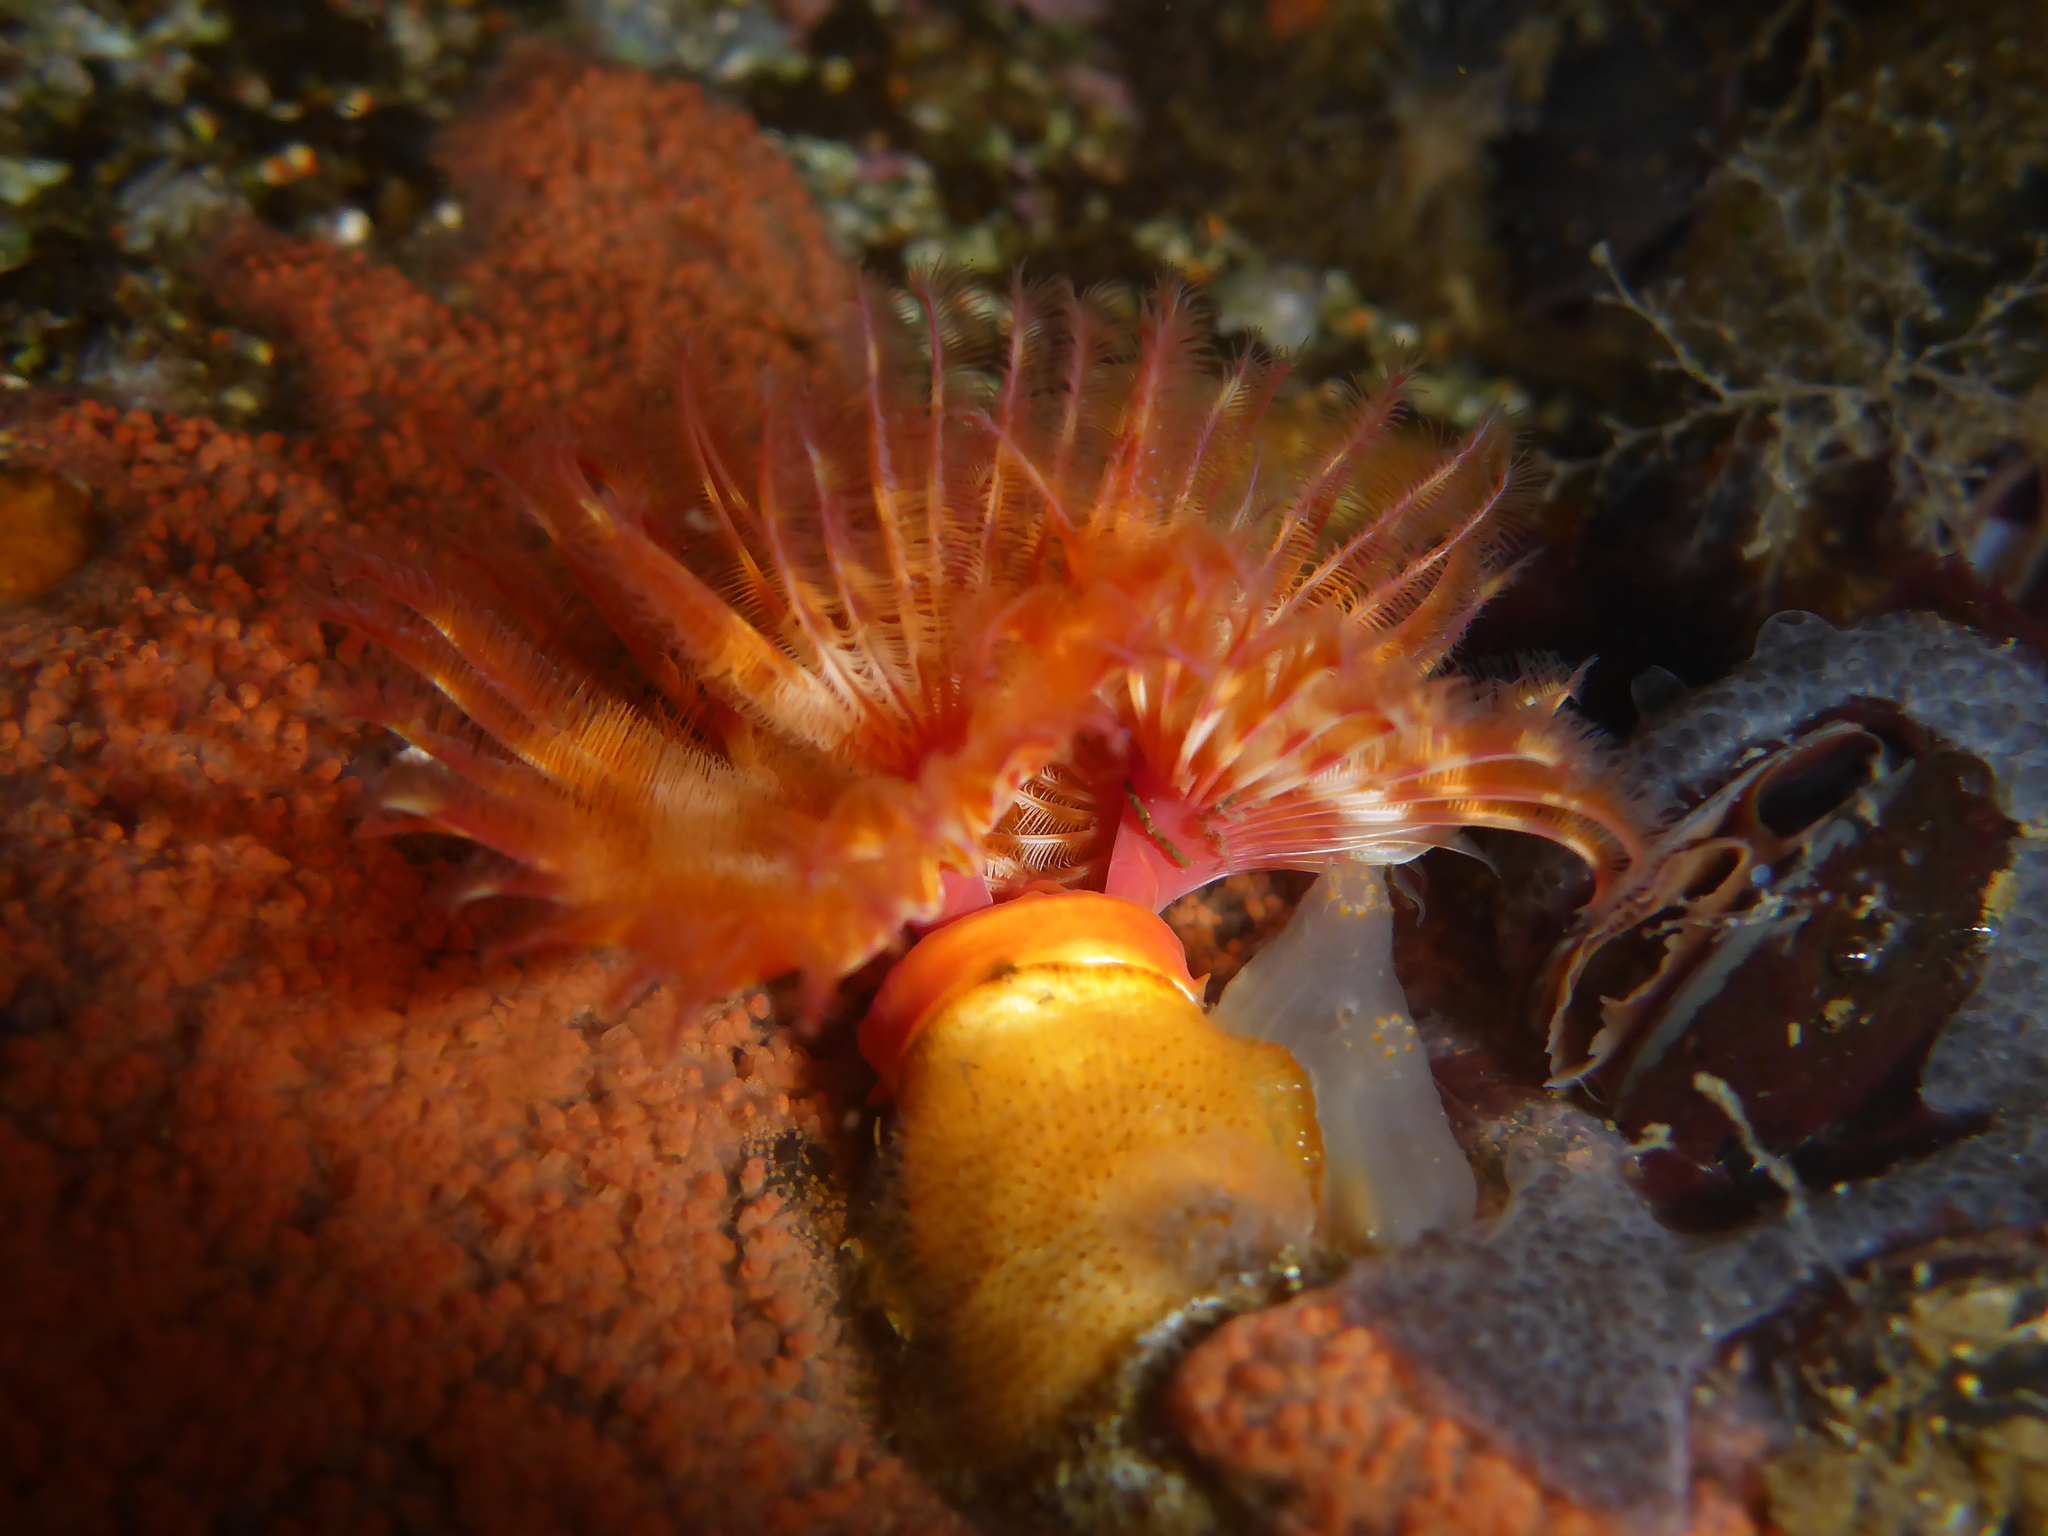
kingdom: Animalia
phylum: Annelida
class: Polychaeta
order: Sabellida
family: Serpulidae
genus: Serpula
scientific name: Serpula columbiana
